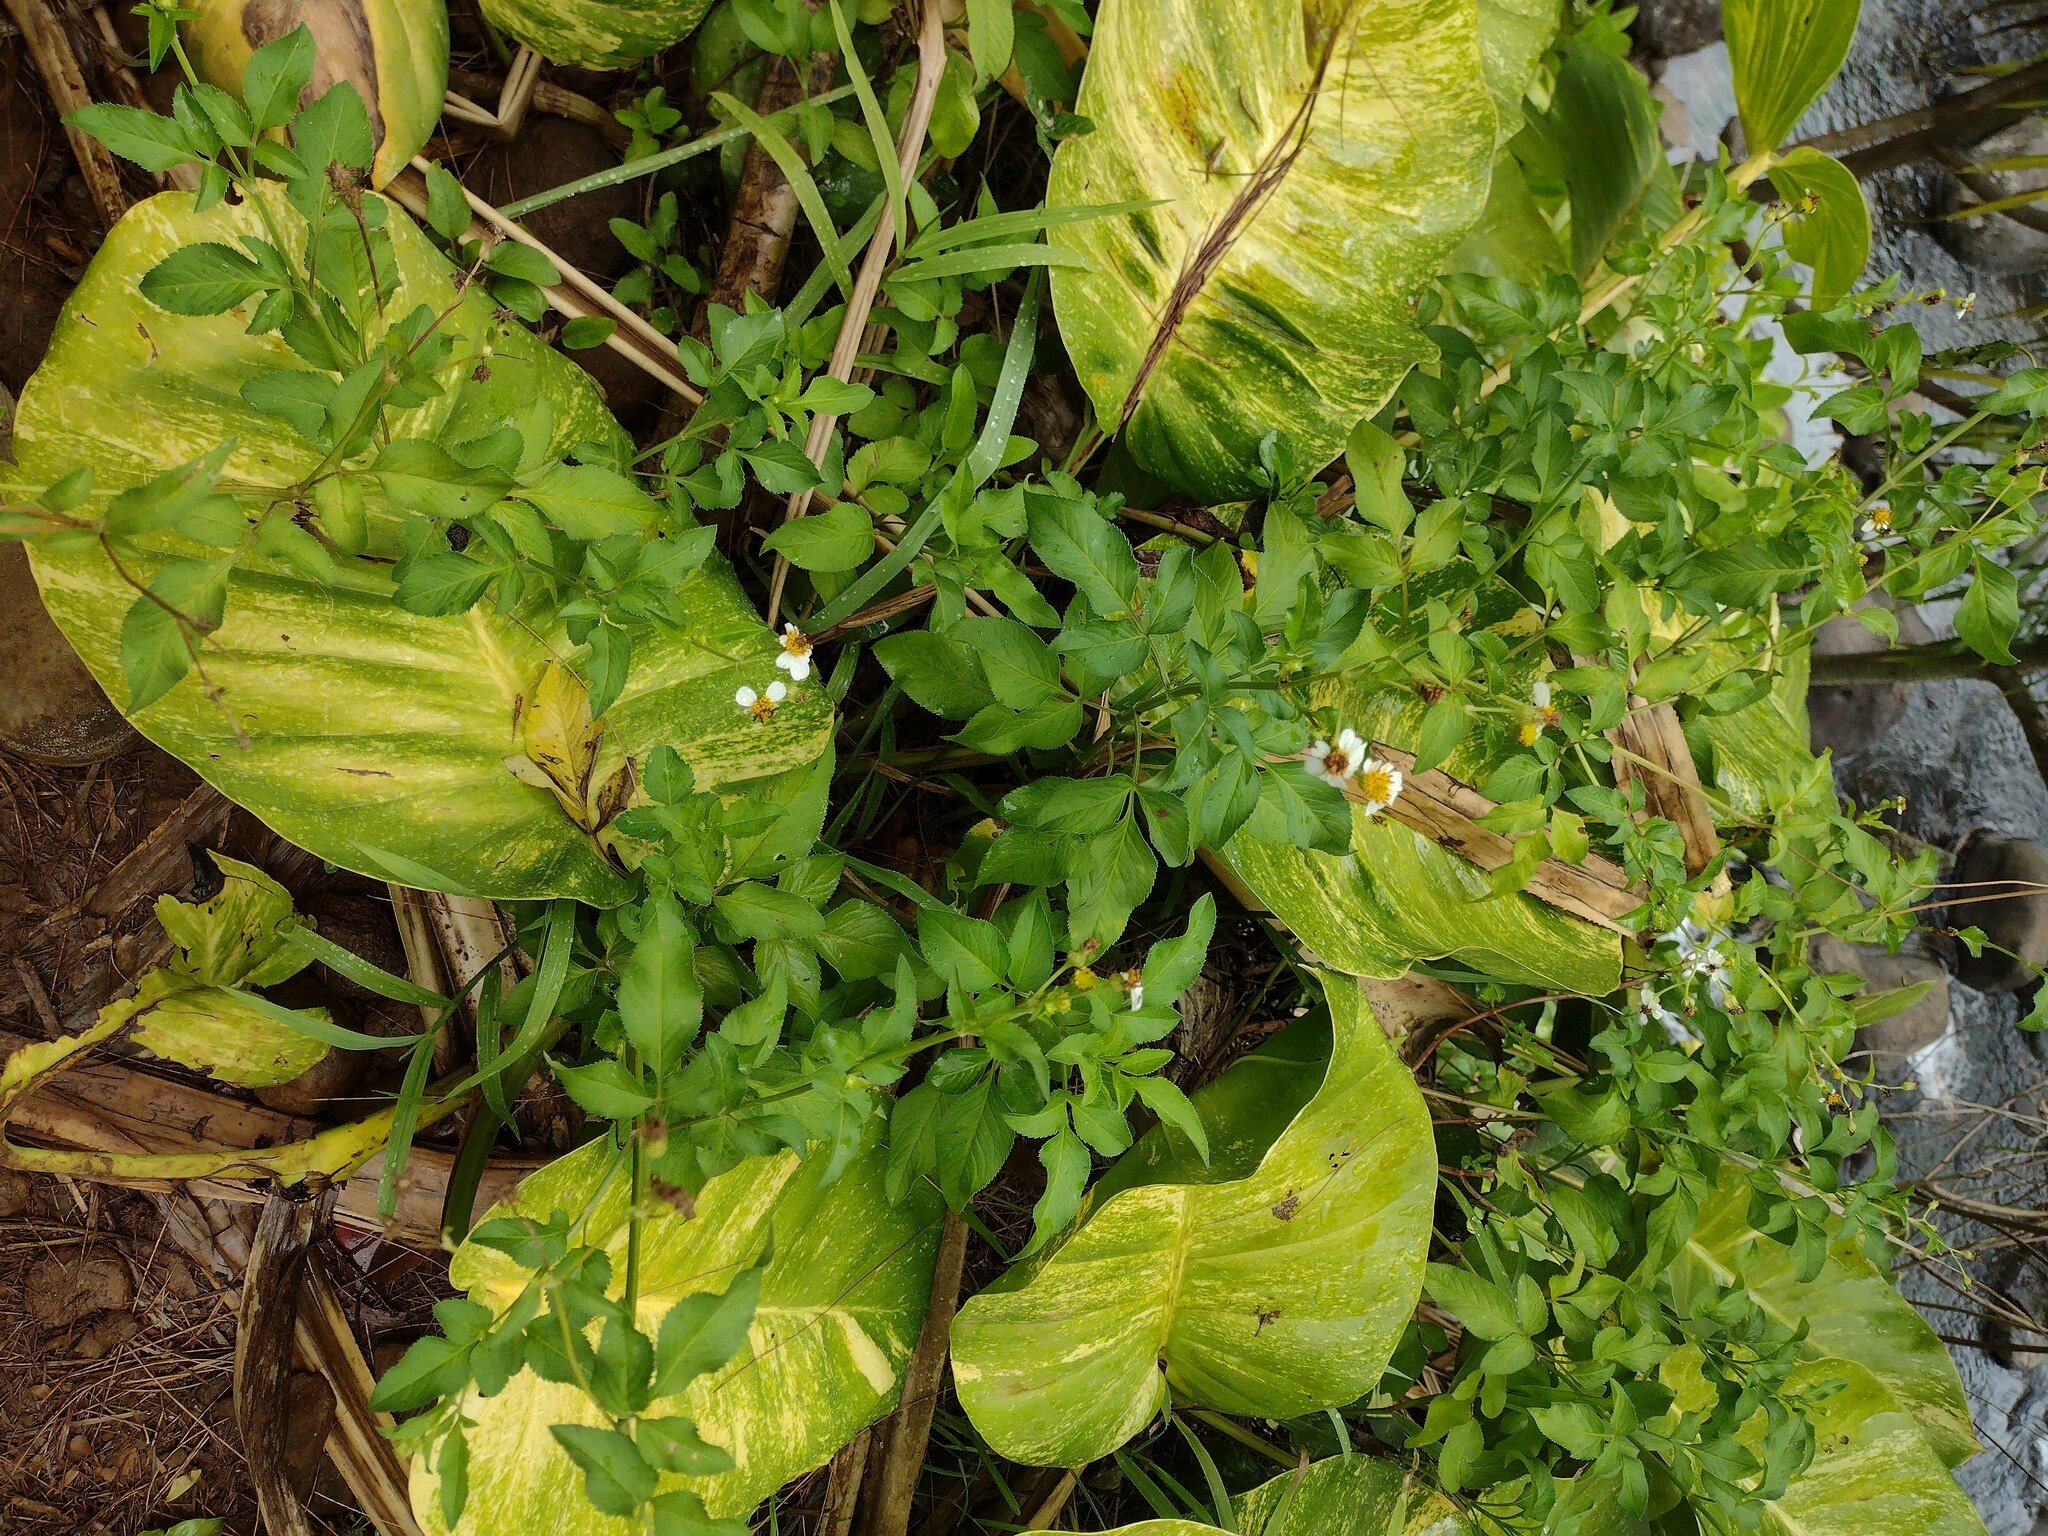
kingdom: Plantae
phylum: Tracheophyta
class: Magnoliopsida
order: Asterales
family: Asteraceae
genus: Bidens
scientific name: Bidens alba
